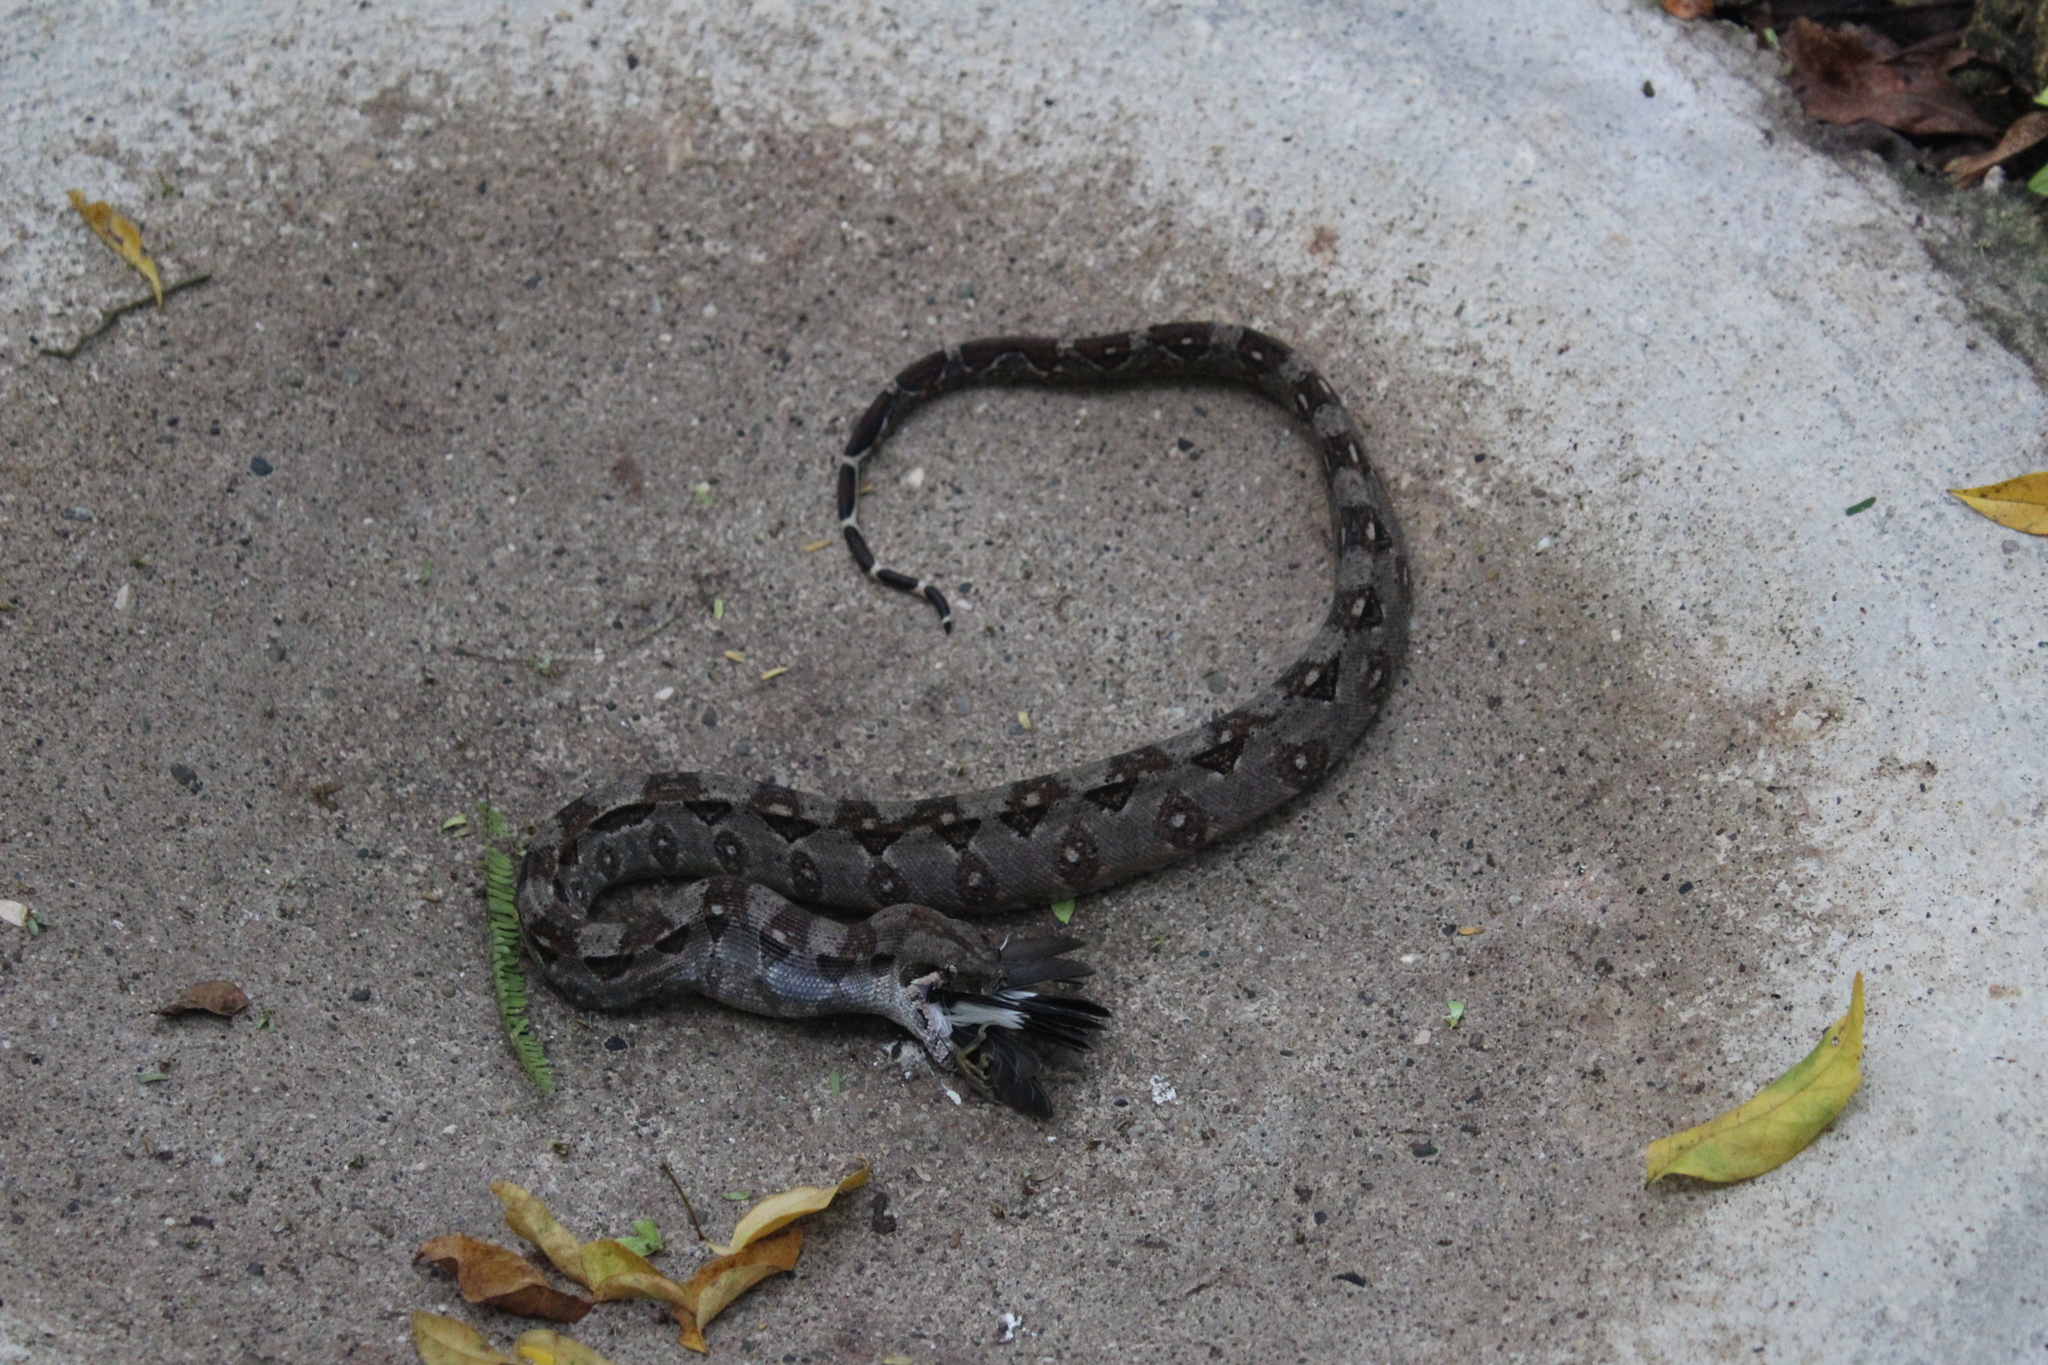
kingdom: Animalia
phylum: Chordata
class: Squamata
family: Boidae
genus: Boa
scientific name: Boa imperator
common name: Central american boa
